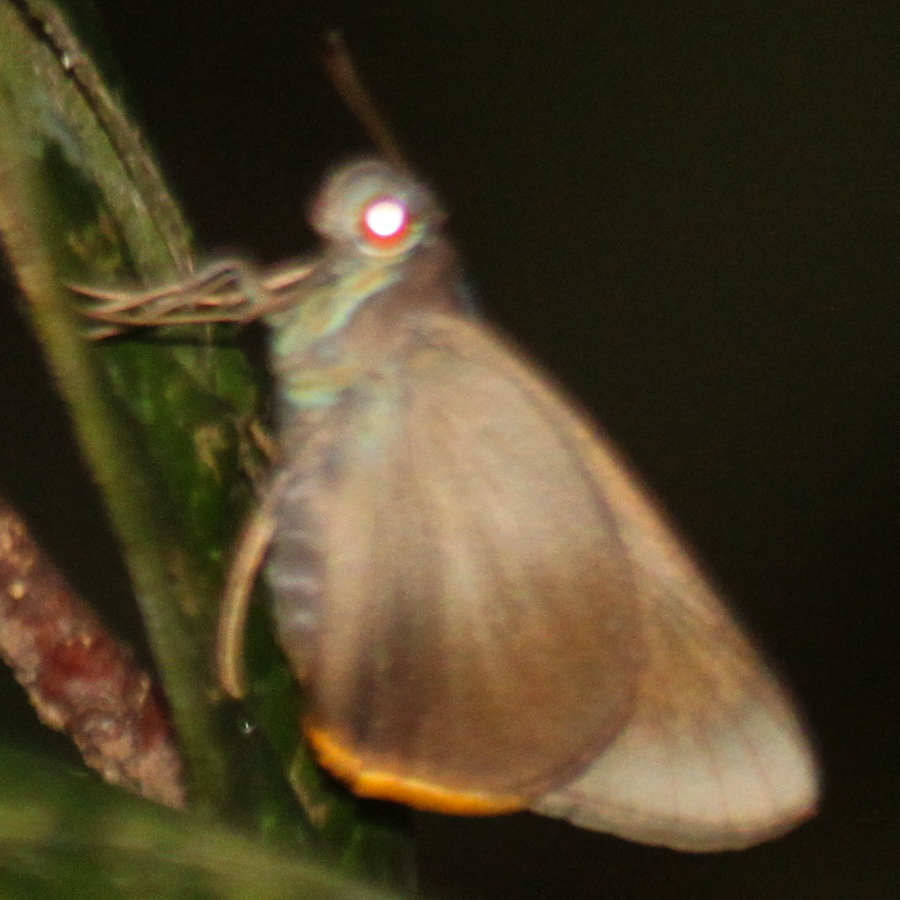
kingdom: Animalia
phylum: Arthropoda
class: Insecta
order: Lepidoptera
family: Hesperiidae
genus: Matapa
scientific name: Matapa cresta
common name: Fringed redeye
